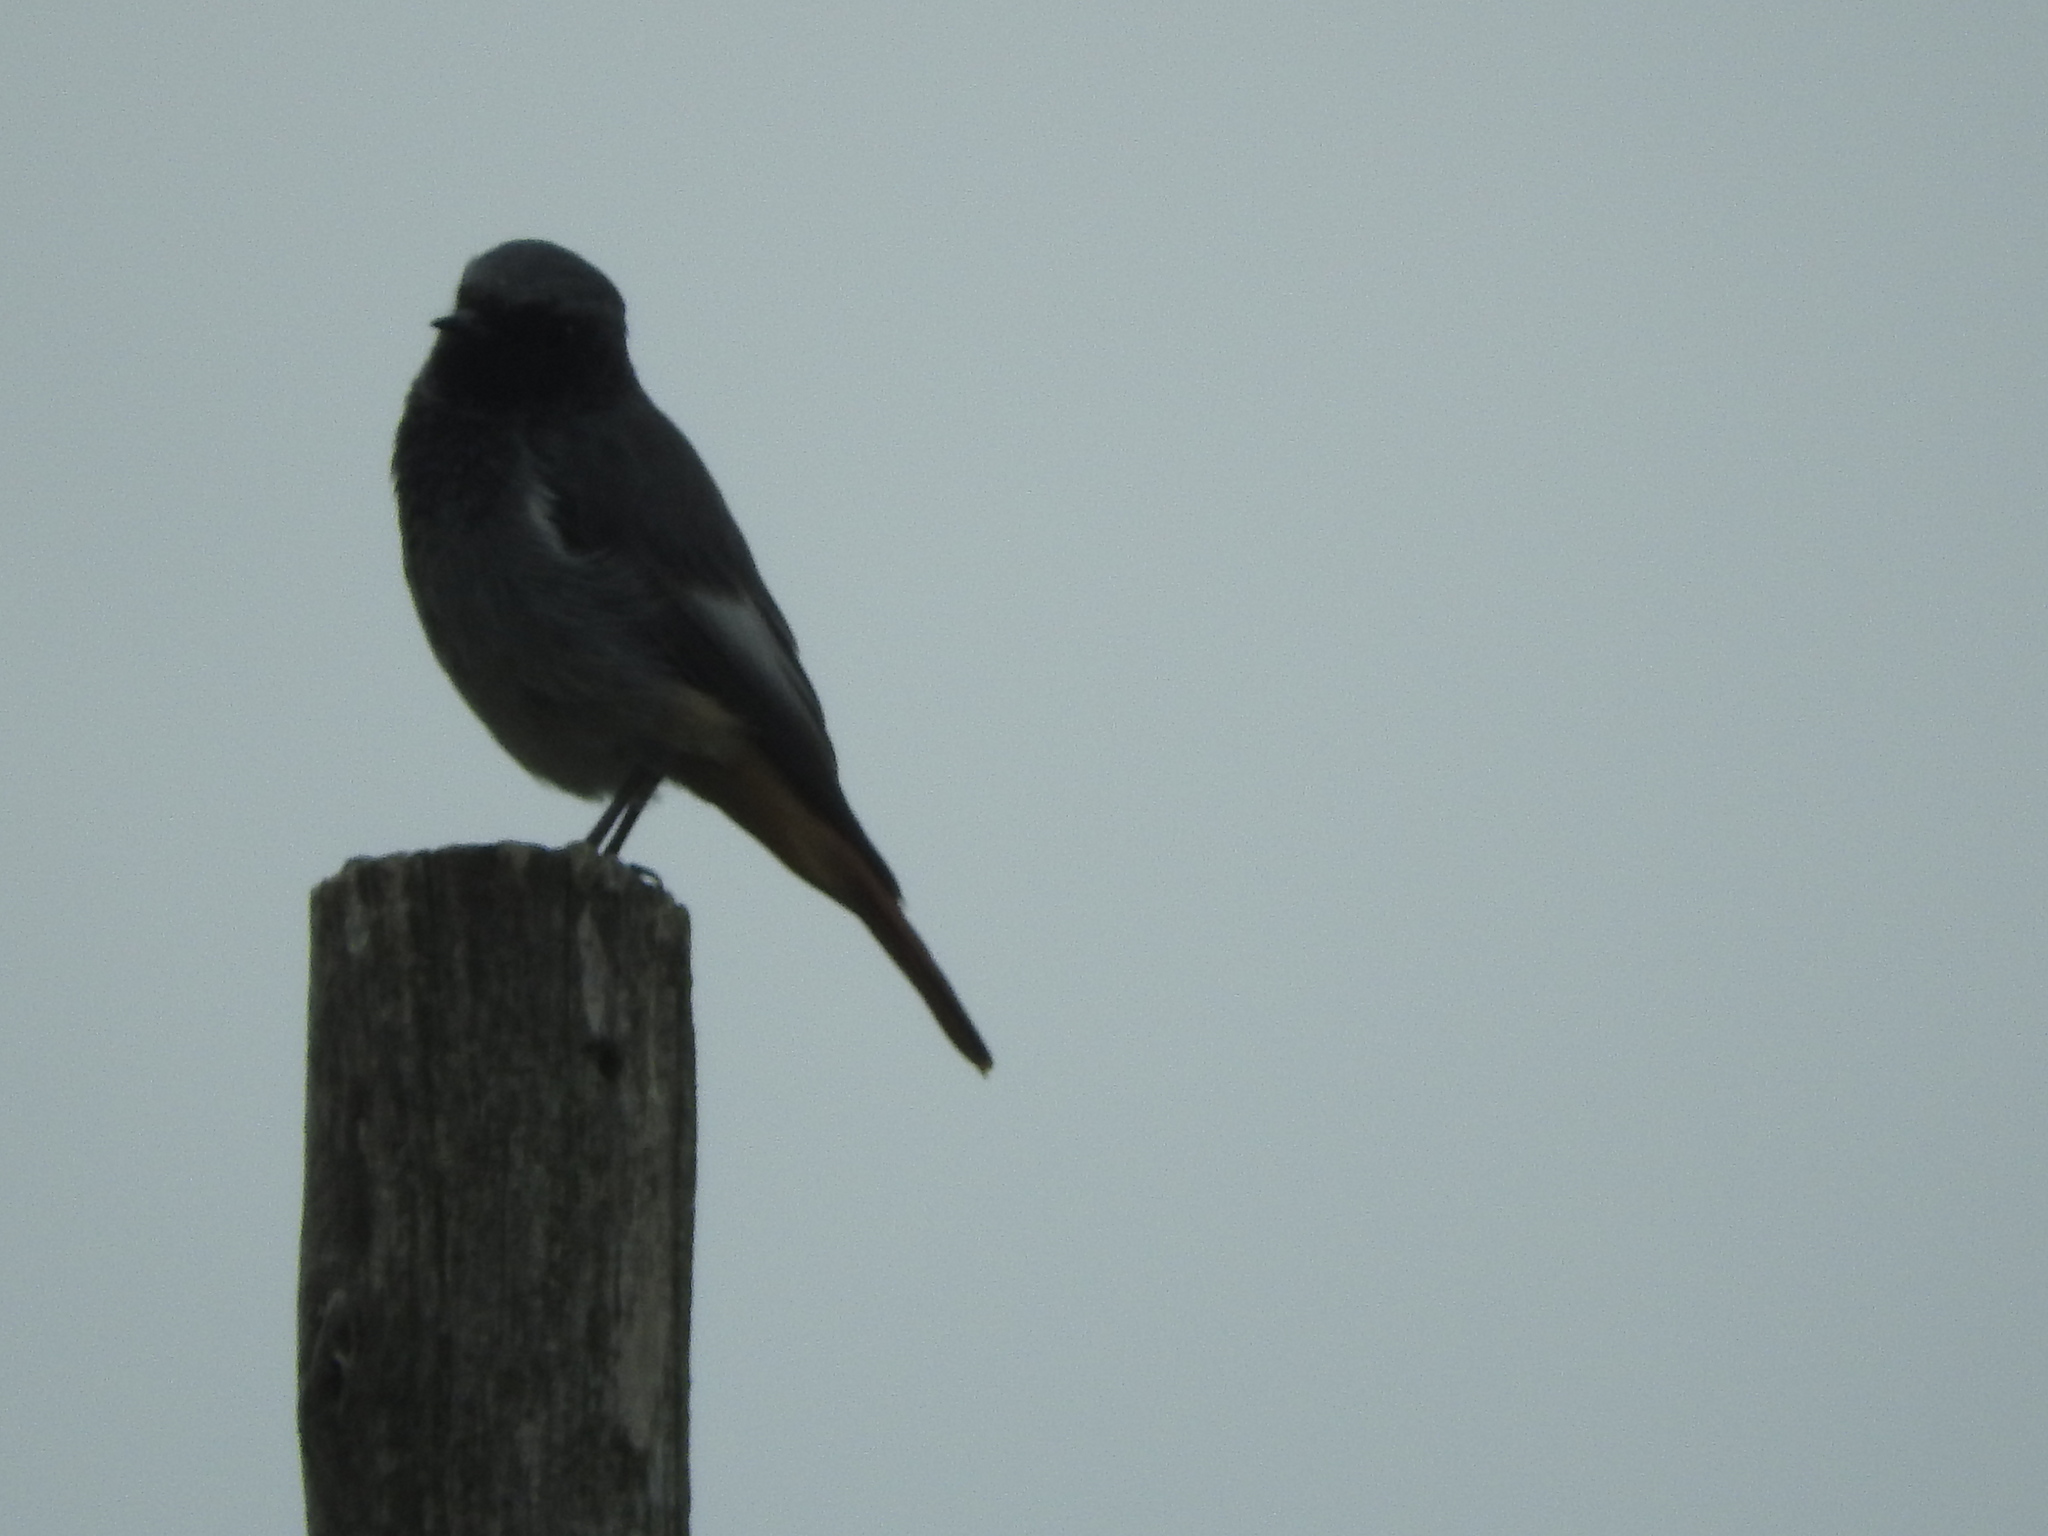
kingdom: Animalia
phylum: Chordata
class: Aves
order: Passeriformes
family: Muscicapidae
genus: Phoenicurus
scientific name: Phoenicurus ochruros
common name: Black redstart
